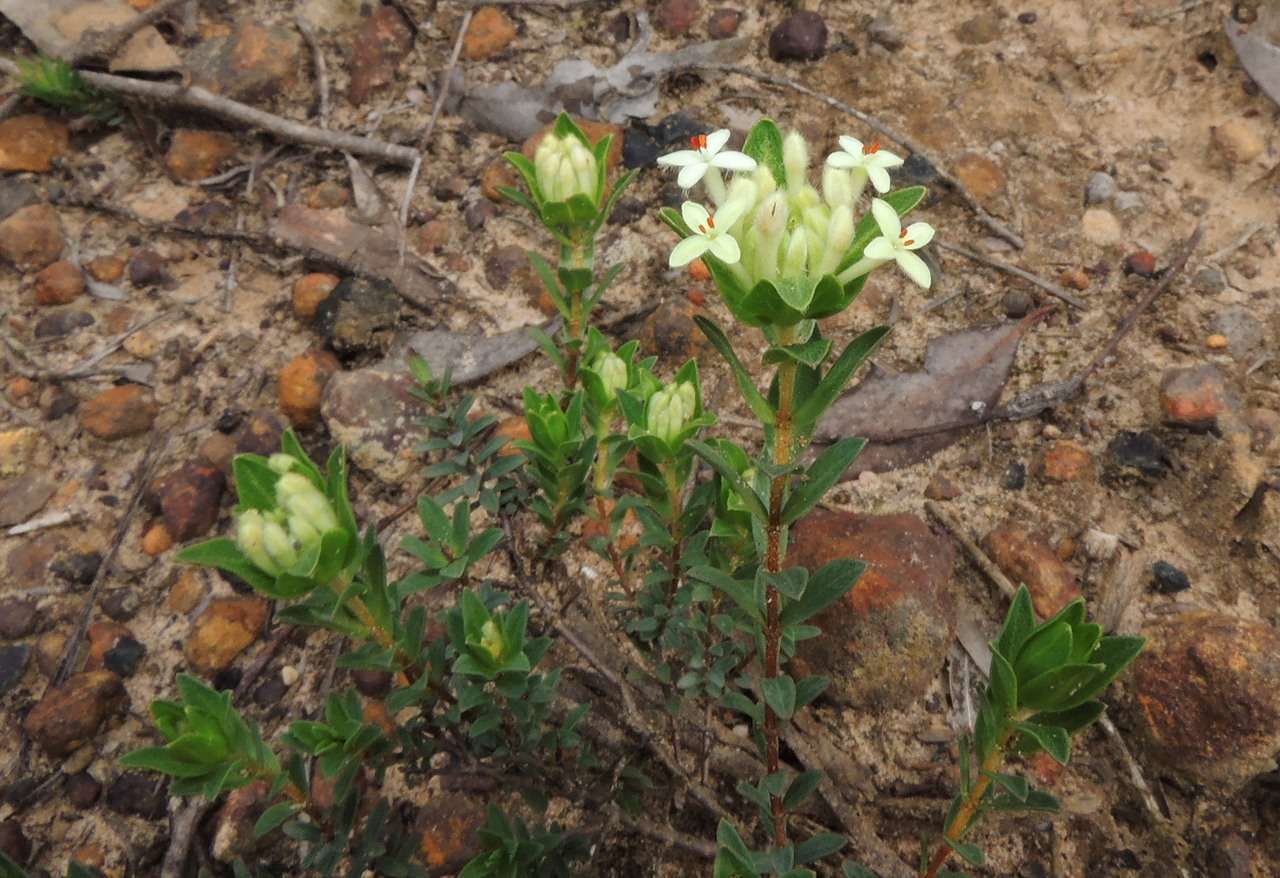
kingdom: Plantae
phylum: Tracheophyta
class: Magnoliopsida
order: Malvales
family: Thymelaeaceae
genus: Pimelea
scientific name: Pimelea humilis
